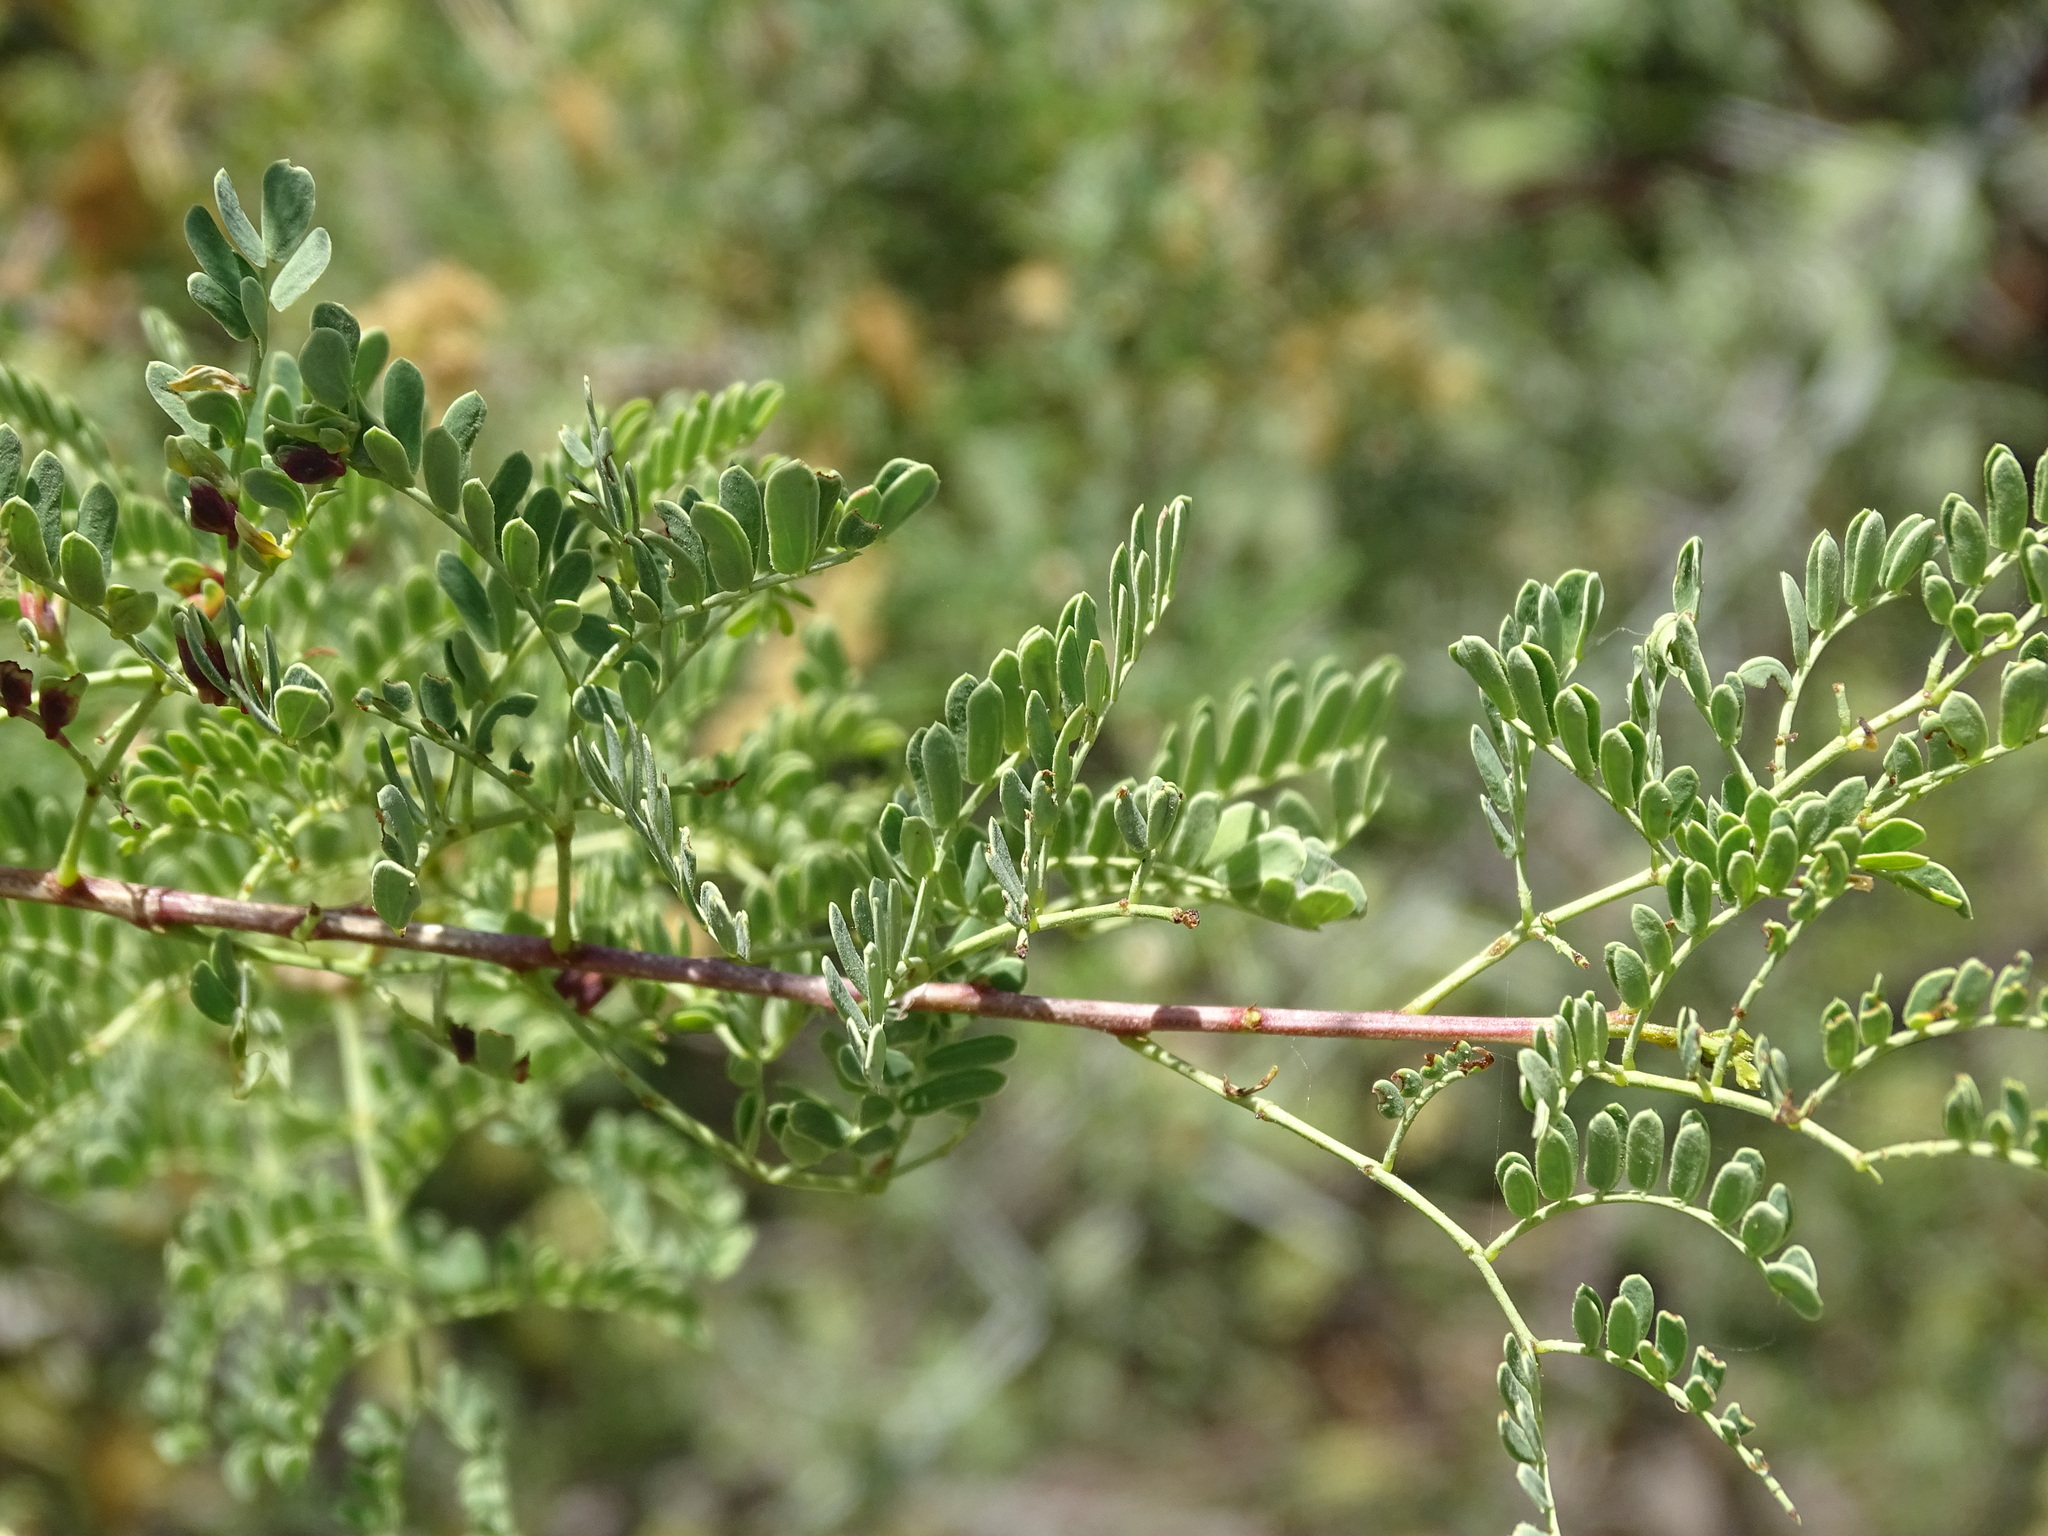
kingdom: Plantae
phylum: Tracheophyta
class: Magnoliopsida
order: Fabales
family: Fabaceae
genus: Senegalia
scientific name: Senegalia greggii
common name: Texas-mimosa
